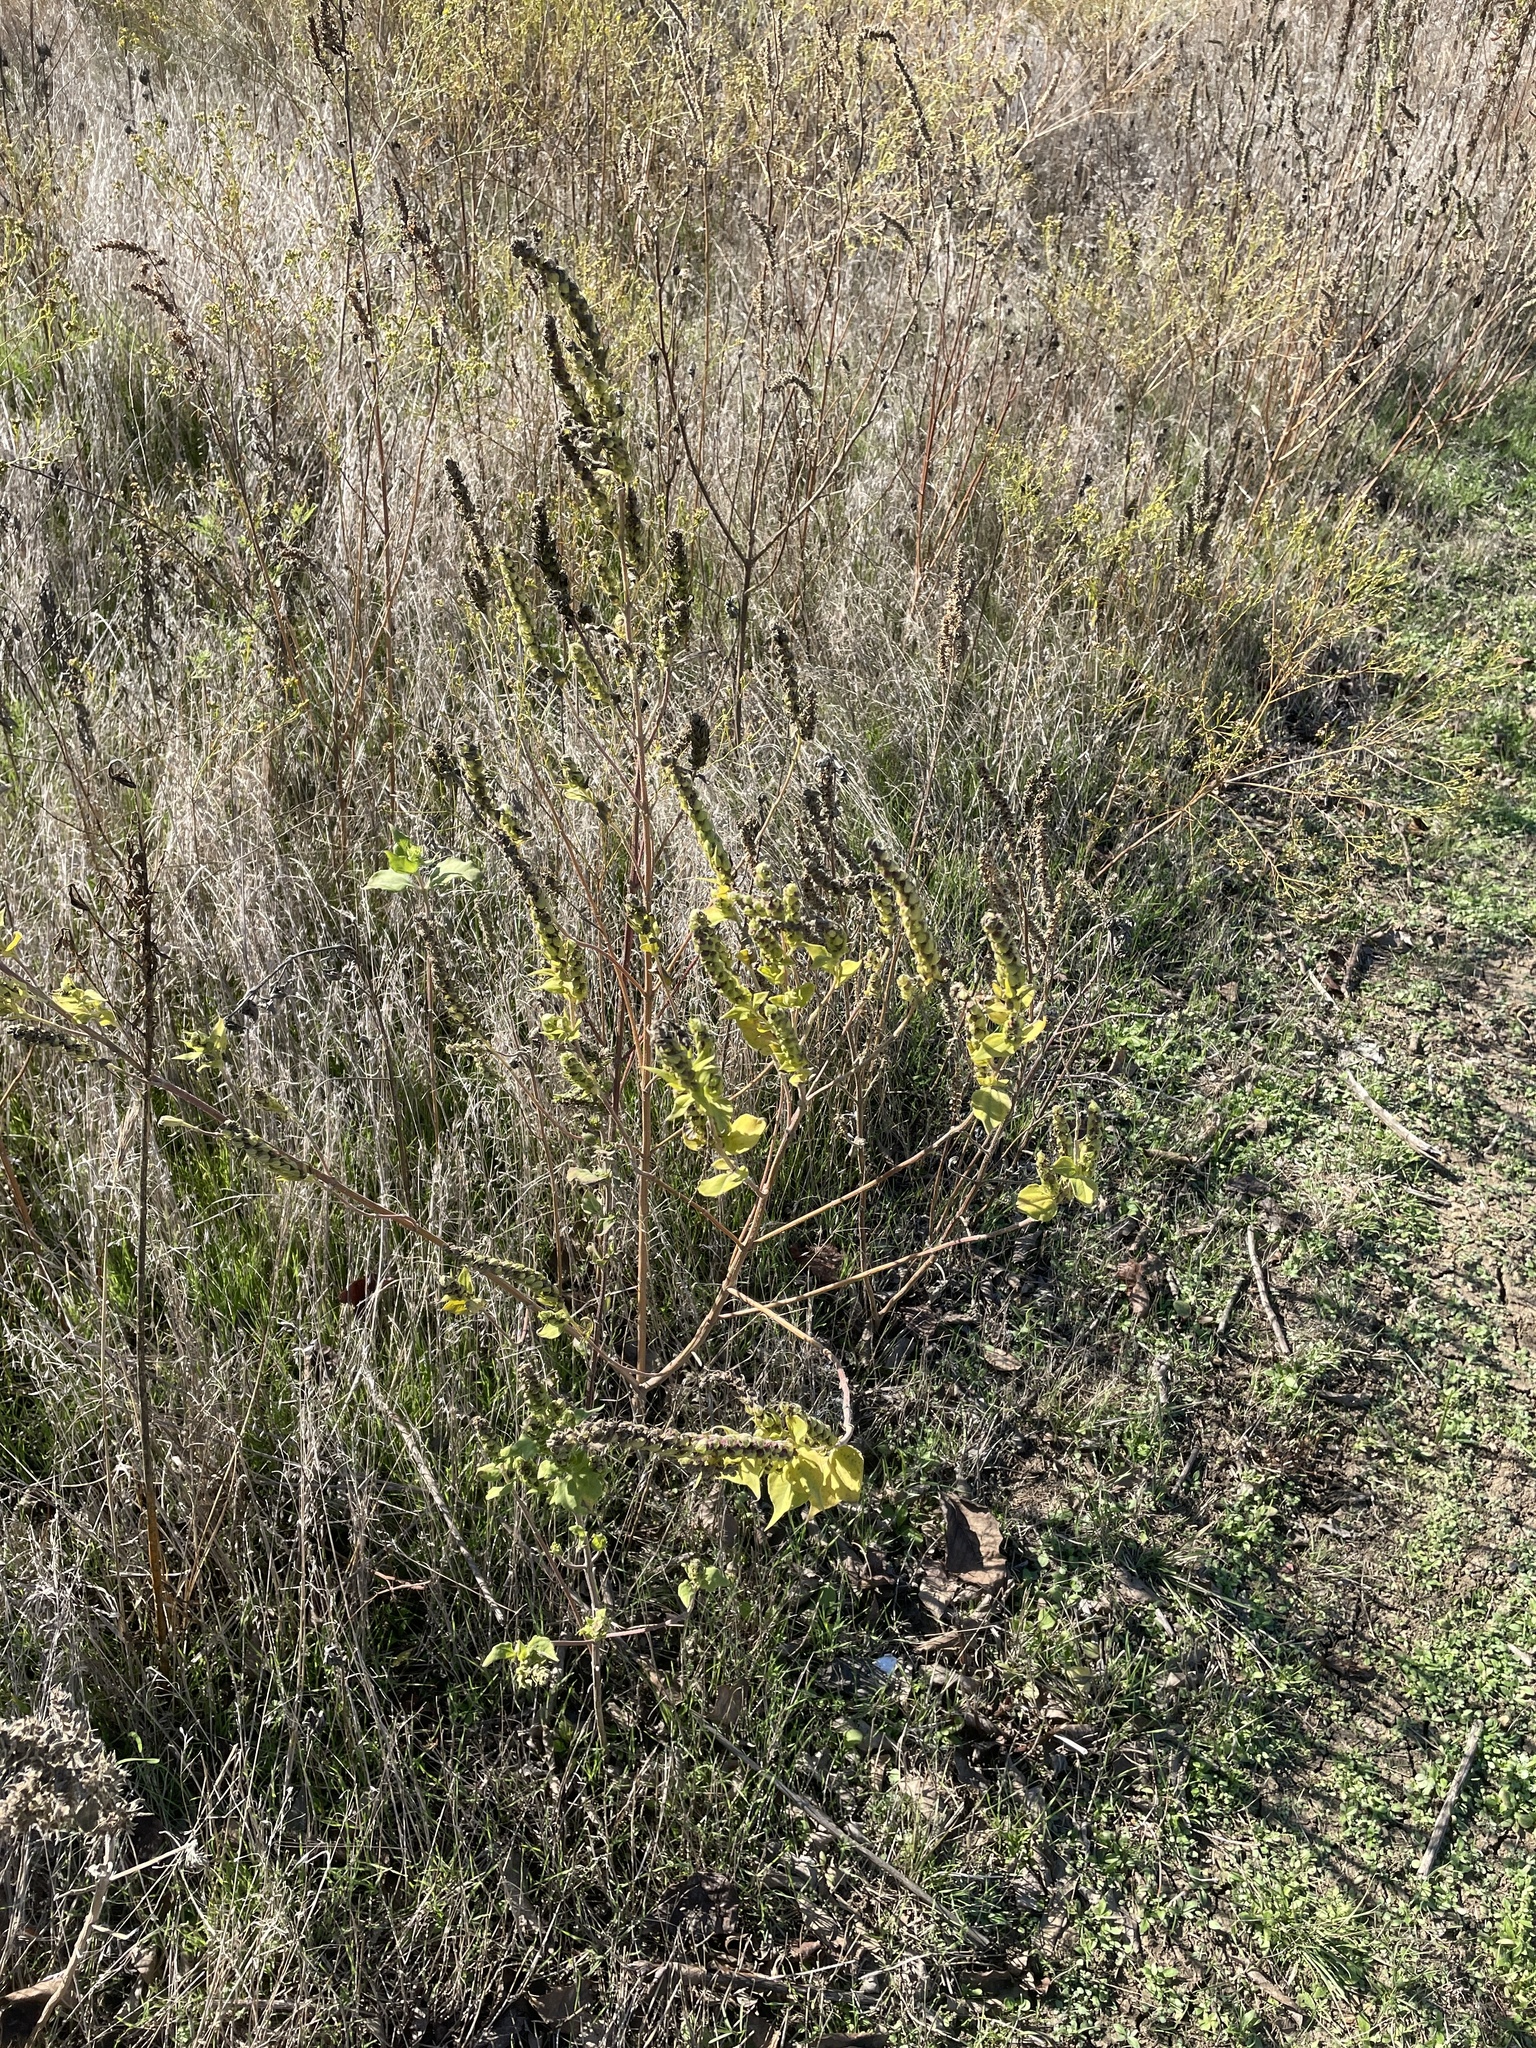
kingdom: Plantae
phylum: Tracheophyta
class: Magnoliopsida
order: Asterales
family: Asteraceae
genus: Iva
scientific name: Iva annua
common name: Marsh-elder
